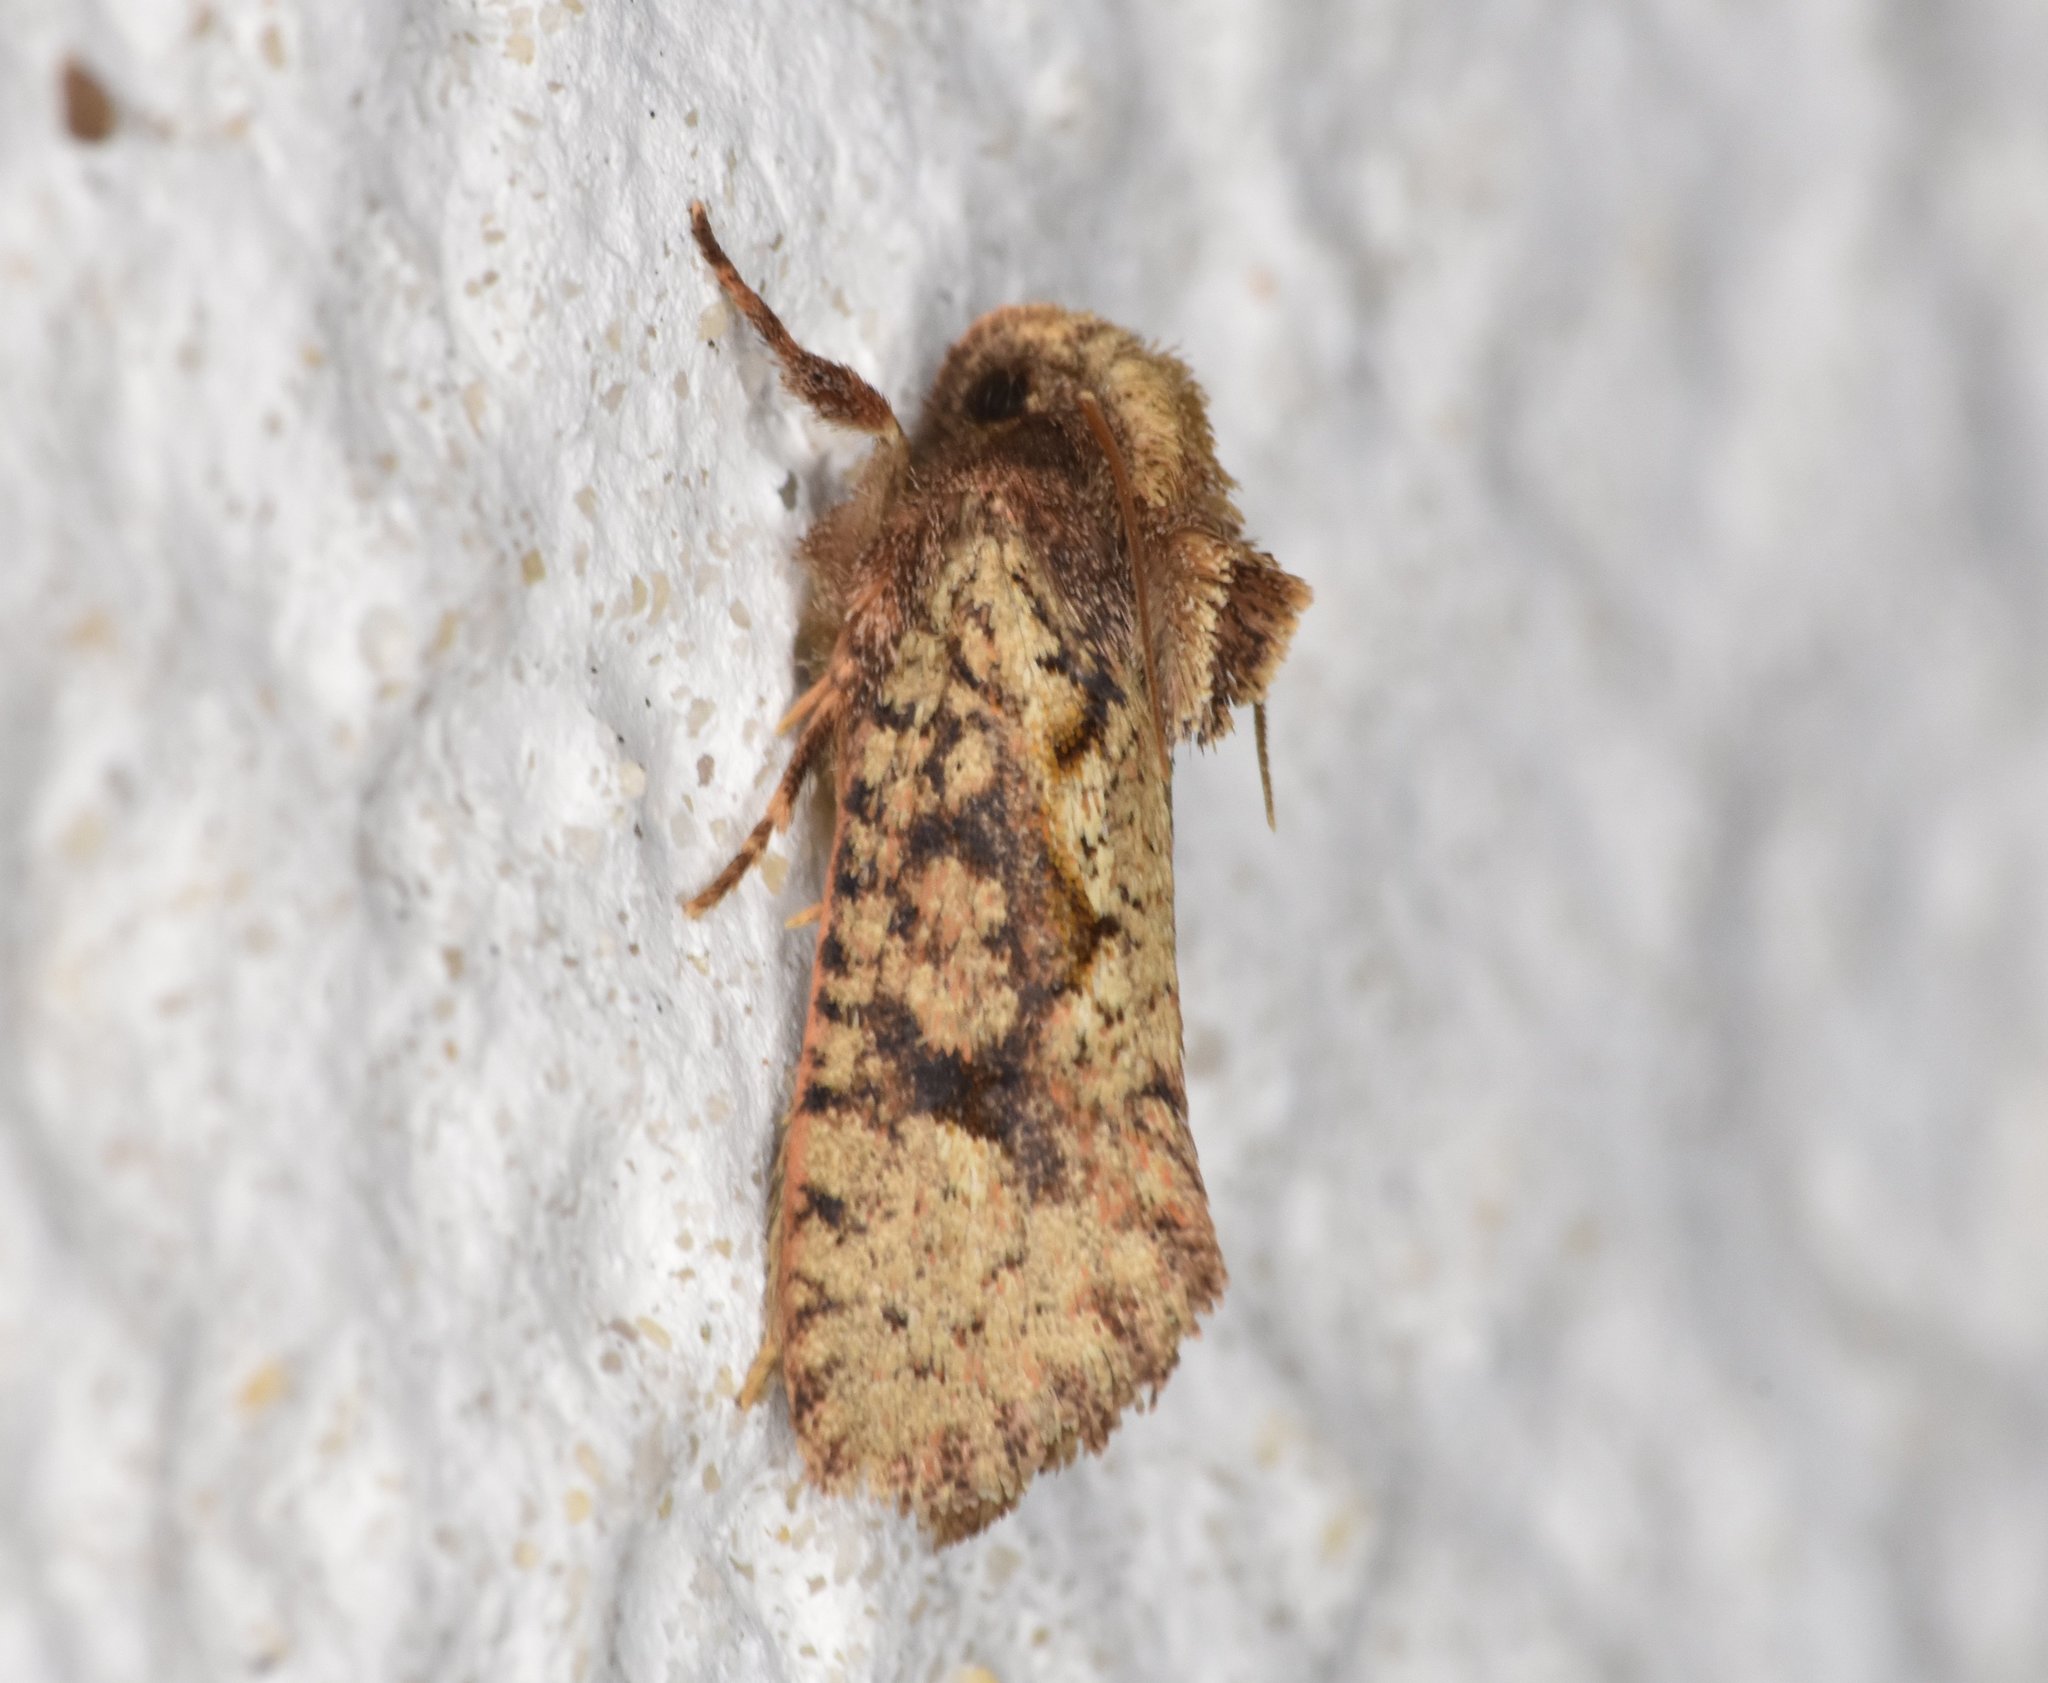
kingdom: Animalia
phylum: Arthropoda
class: Insecta
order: Lepidoptera
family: Tineidae
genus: Acrolophus
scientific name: Acrolophus walsinghami
